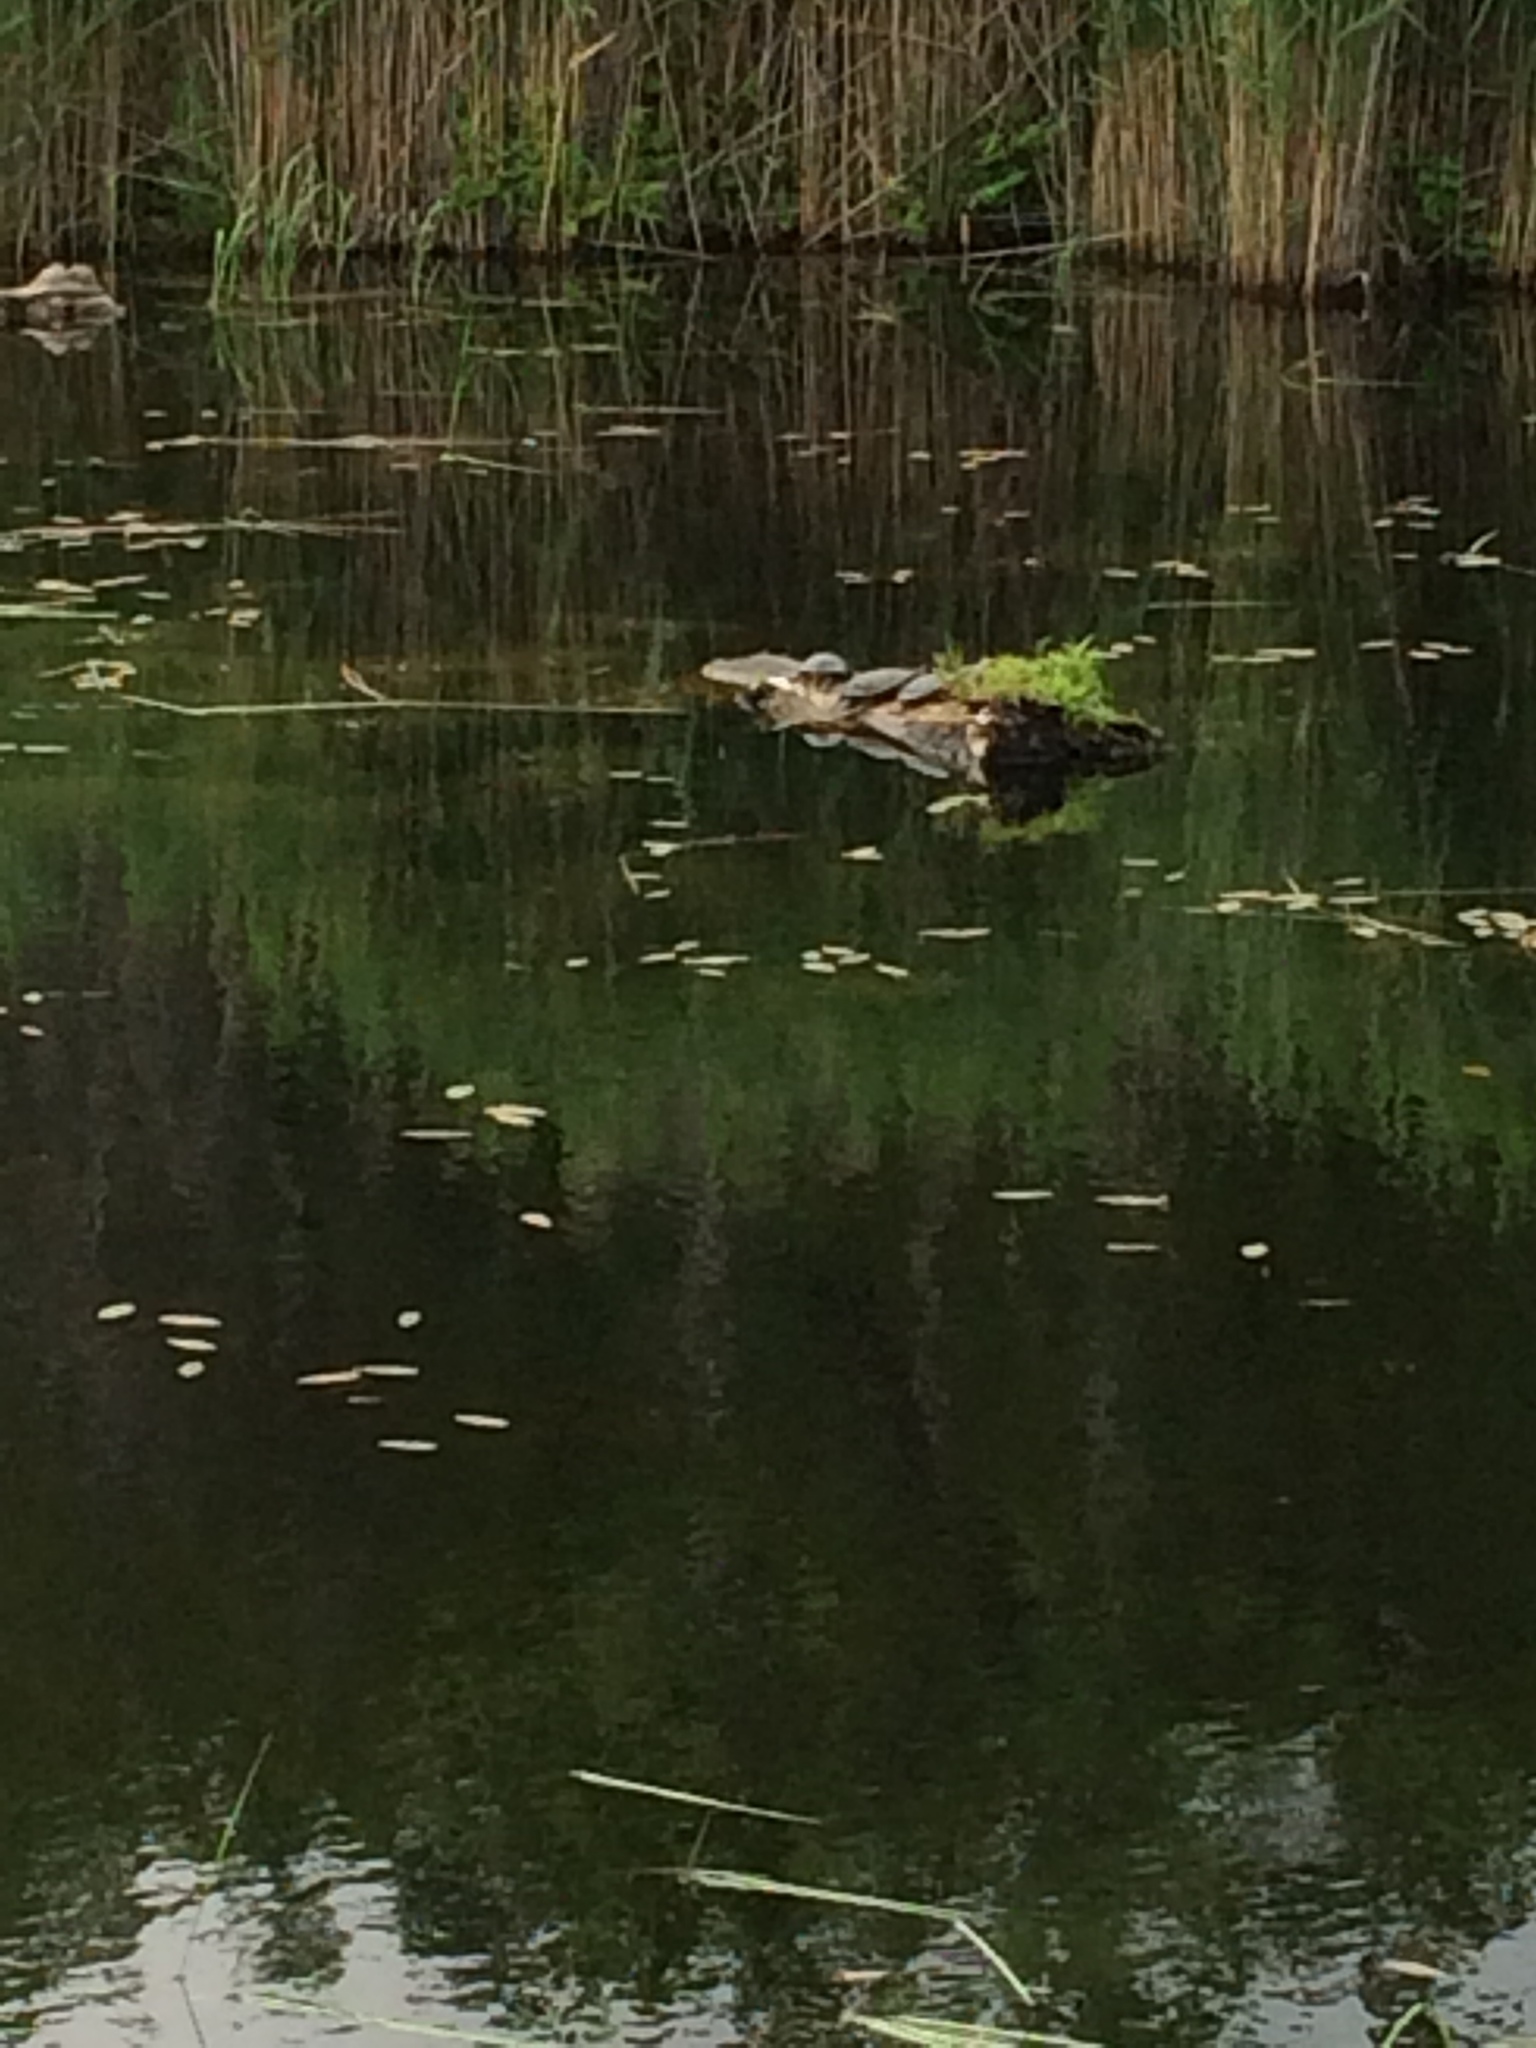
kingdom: Animalia
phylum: Chordata
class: Testudines
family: Emydidae
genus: Chrysemys
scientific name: Chrysemys picta
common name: Painted turtle
